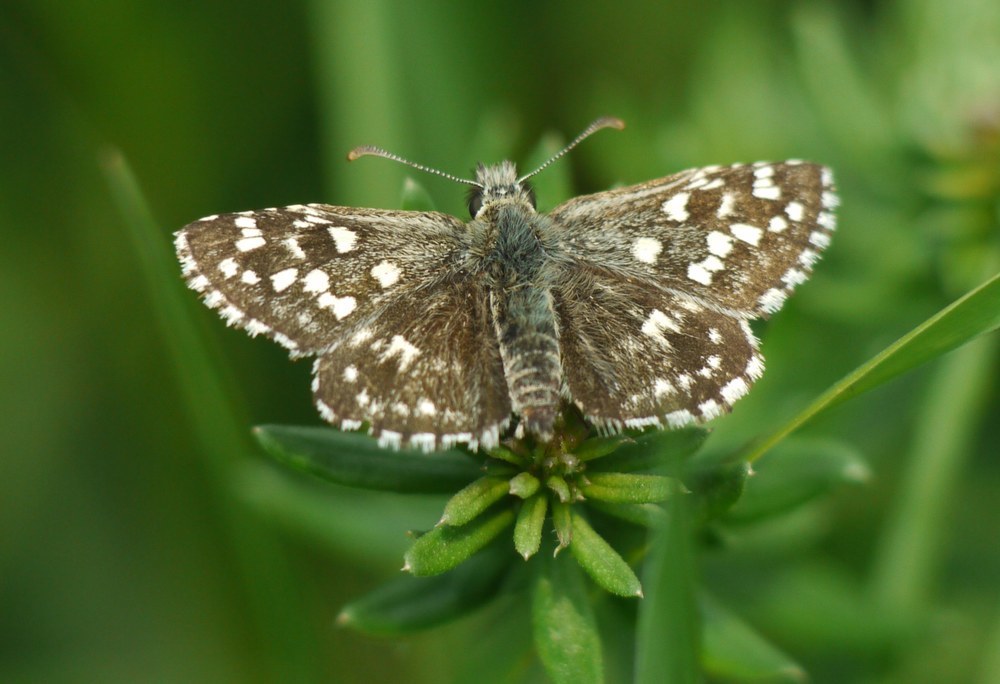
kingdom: Animalia
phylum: Arthropoda
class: Insecta
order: Lepidoptera
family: Hesperiidae
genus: Pyrgus
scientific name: Pyrgus malvae
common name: Grizzled skipper
